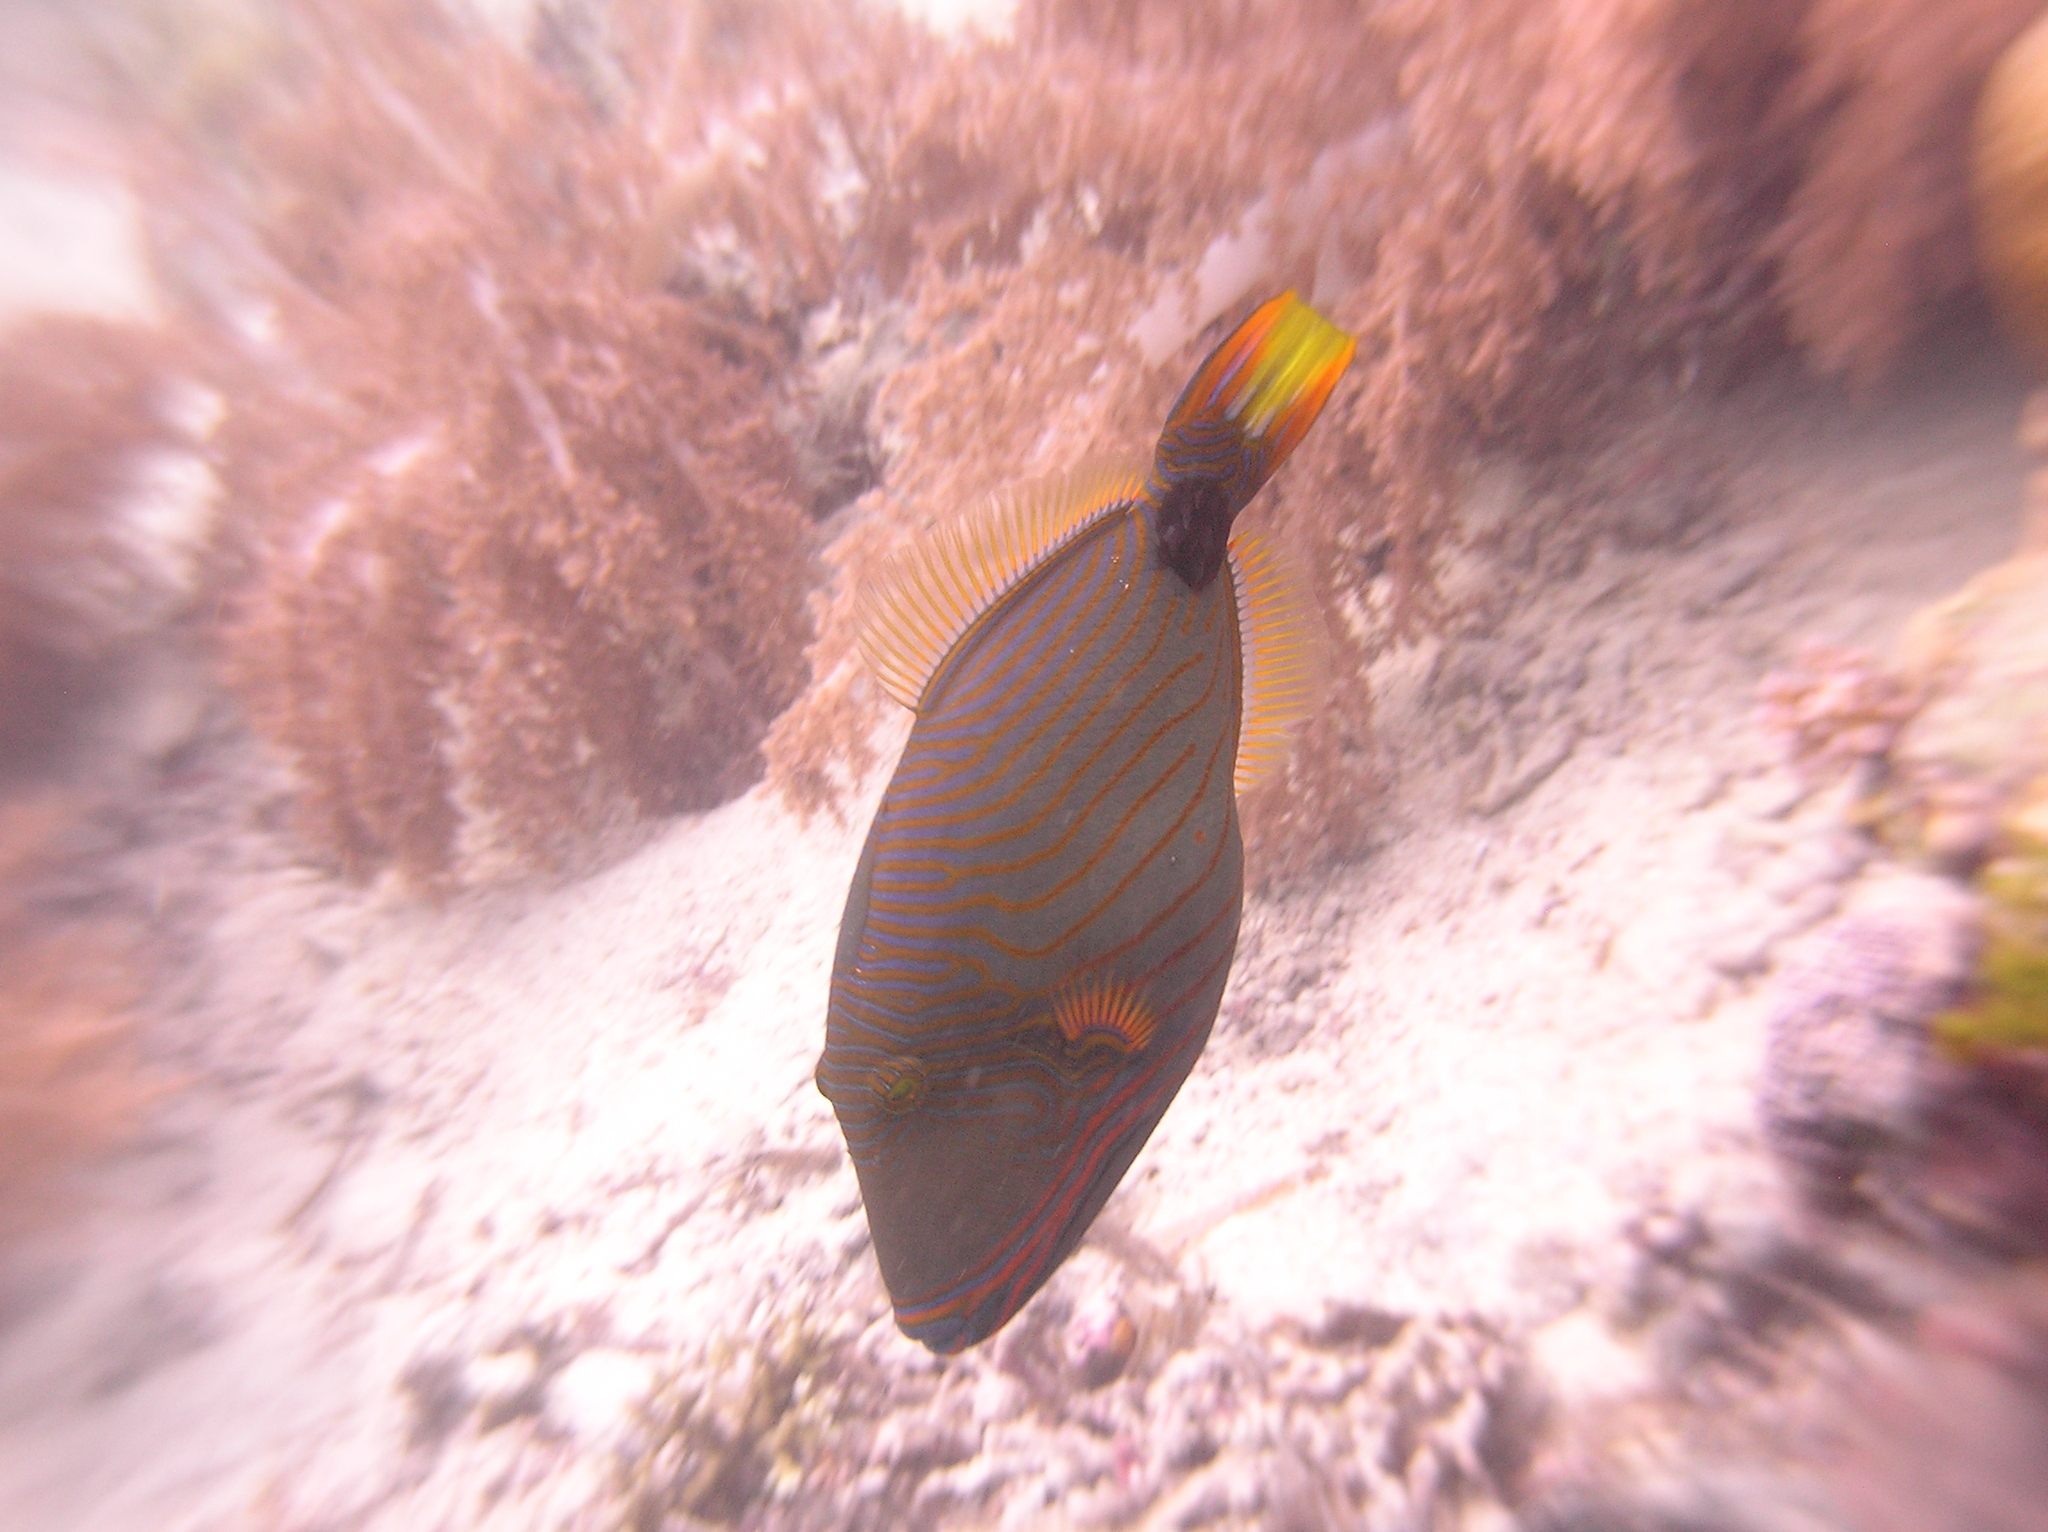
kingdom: Animalia
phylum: Chordata
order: Tetraodontiformes
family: Balistidae
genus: Balistapus
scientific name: Balistapus undulatus
